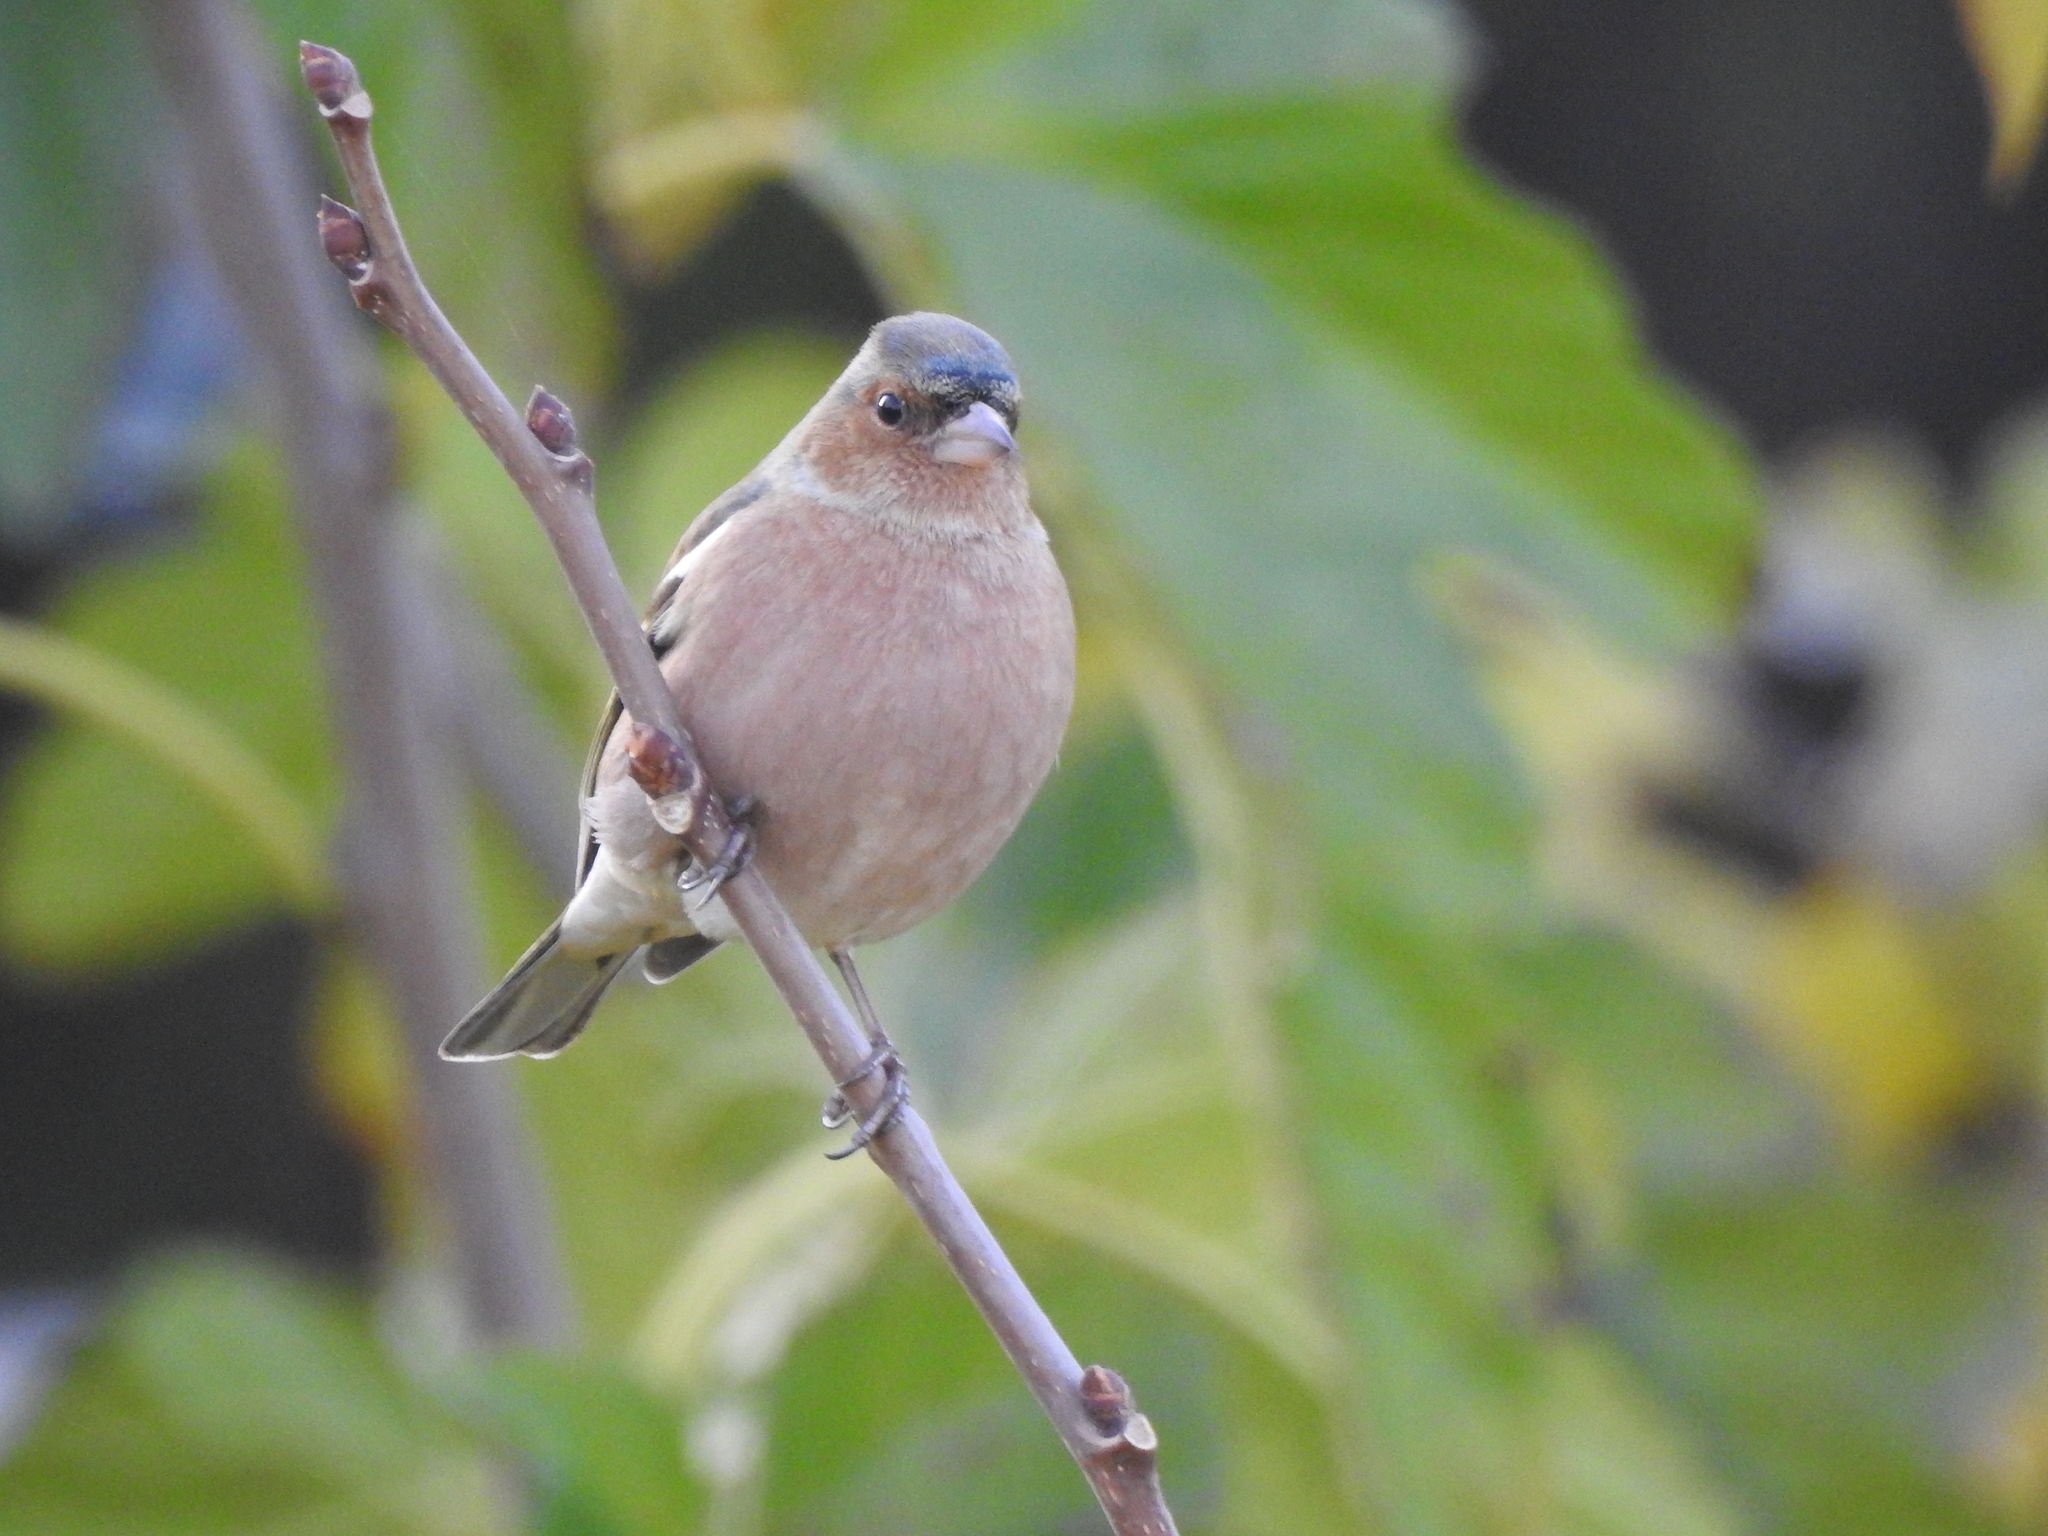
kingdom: Animalia
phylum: Chordata
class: Aves
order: Passeriformes
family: Fringillidae
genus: Fringilla
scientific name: Fringilla coelebs
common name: Common chaffinch
